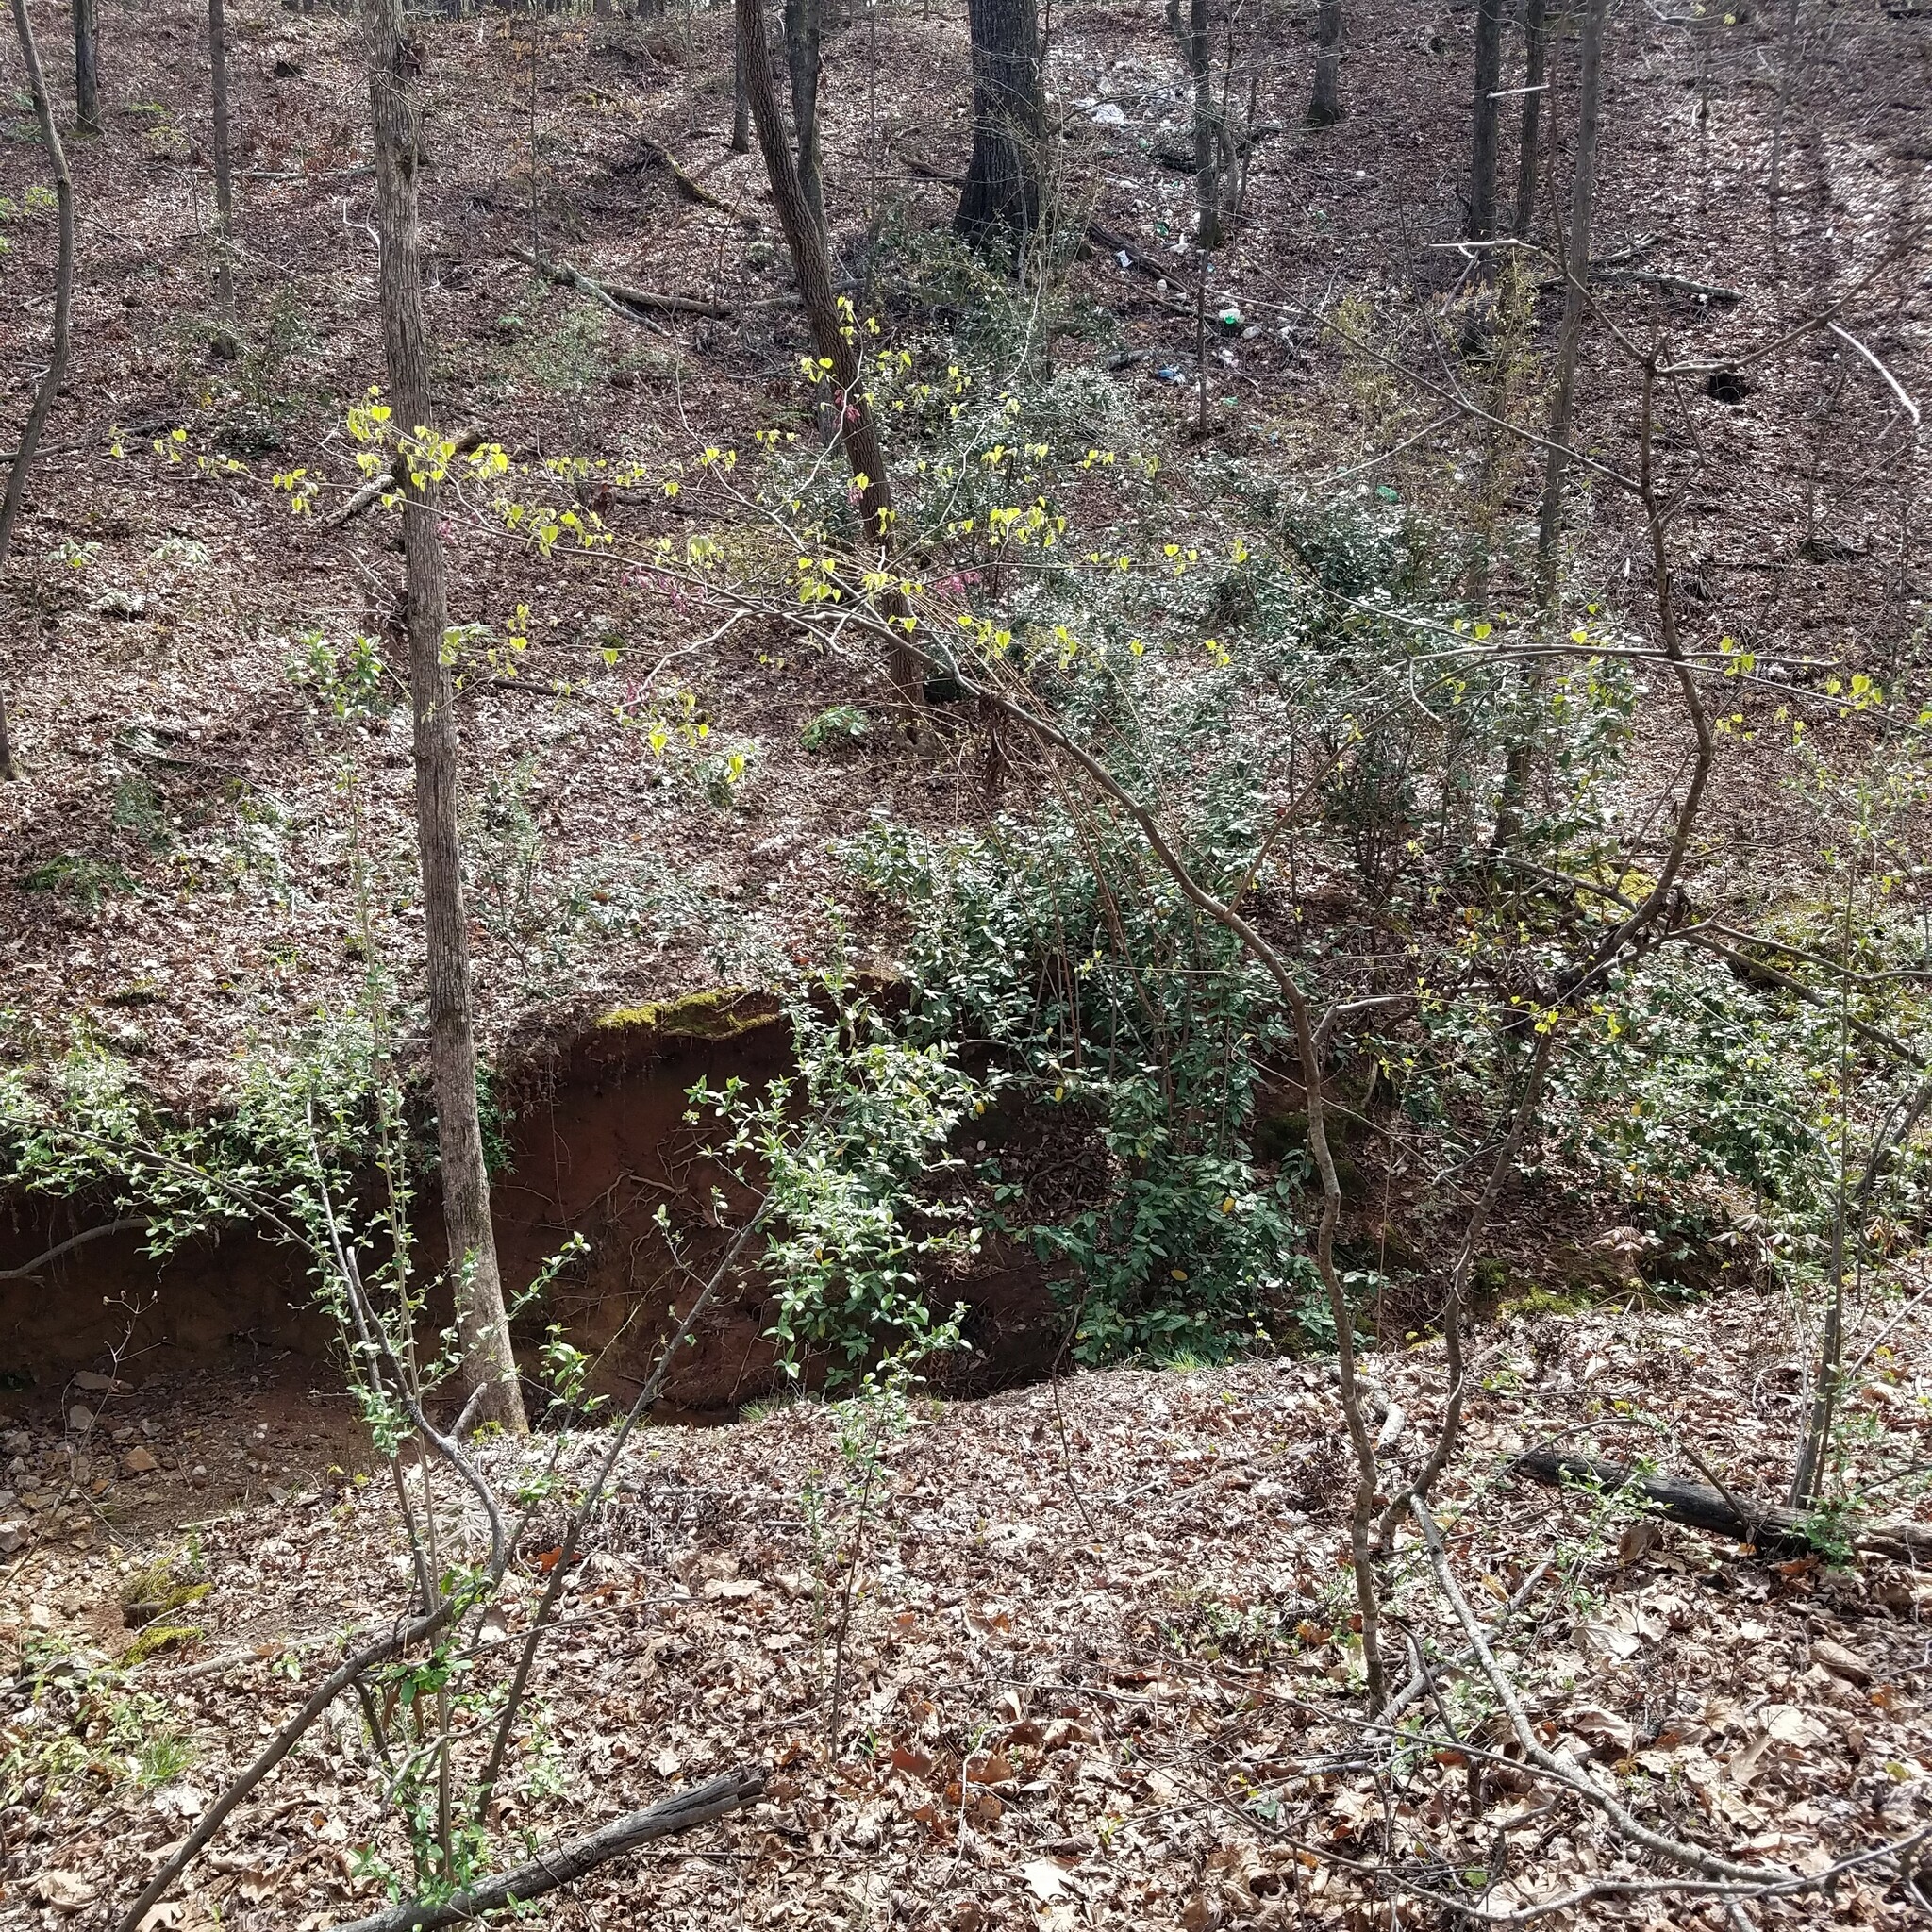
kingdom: Plantae
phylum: Tracheophyta
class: Magnoliopsida
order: Fabales
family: Fabaceae
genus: Cercis
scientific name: Cercis canadensis
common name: Eastern redbud
